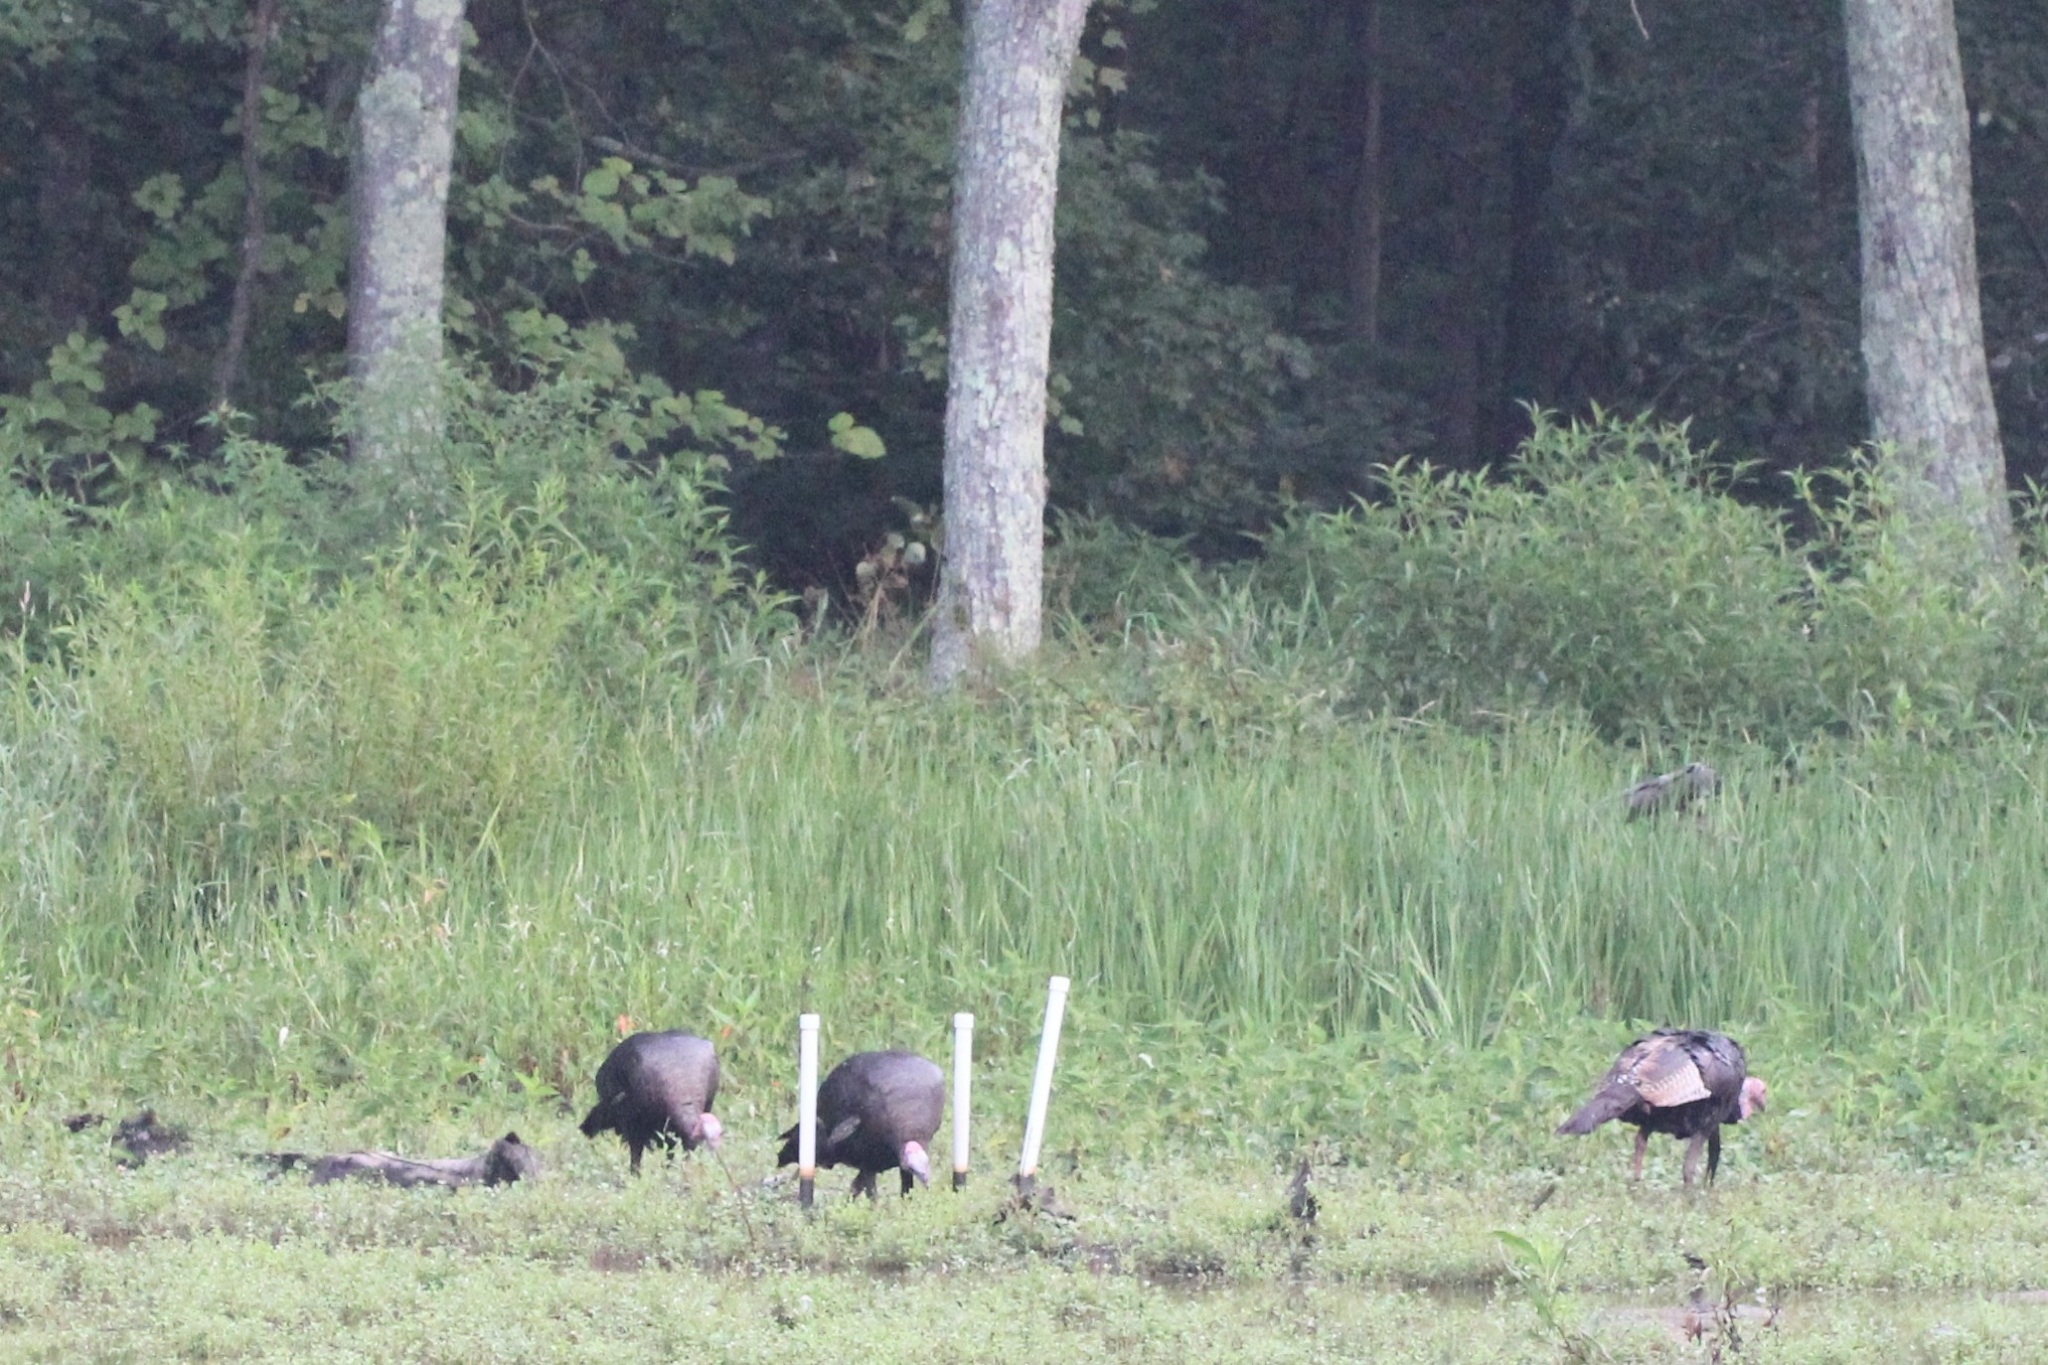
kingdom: Animalia
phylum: Chordata
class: Aves
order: Galliformes
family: Phasianidae
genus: Meleagris
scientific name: Meleagris gallopavo
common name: Wild turkey
